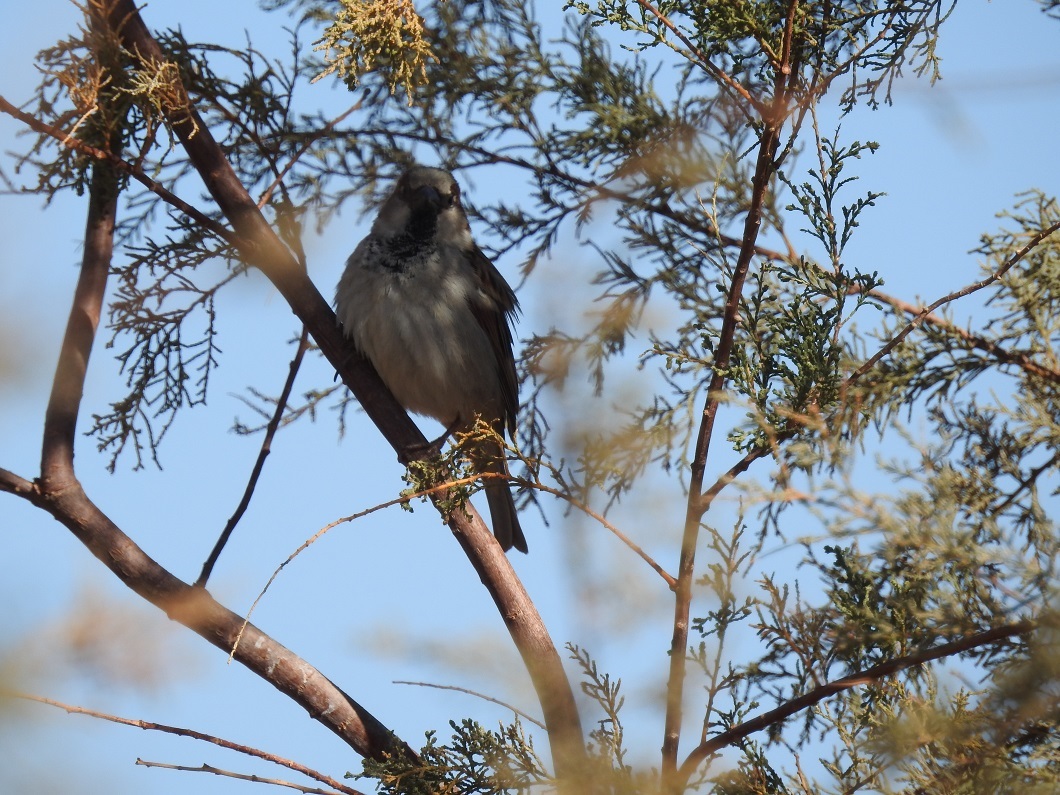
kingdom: Animalia
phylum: Chordata
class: Aves
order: Passeriformes
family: Passeridae
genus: Passer
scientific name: Passer domesticus
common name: House sparrow
